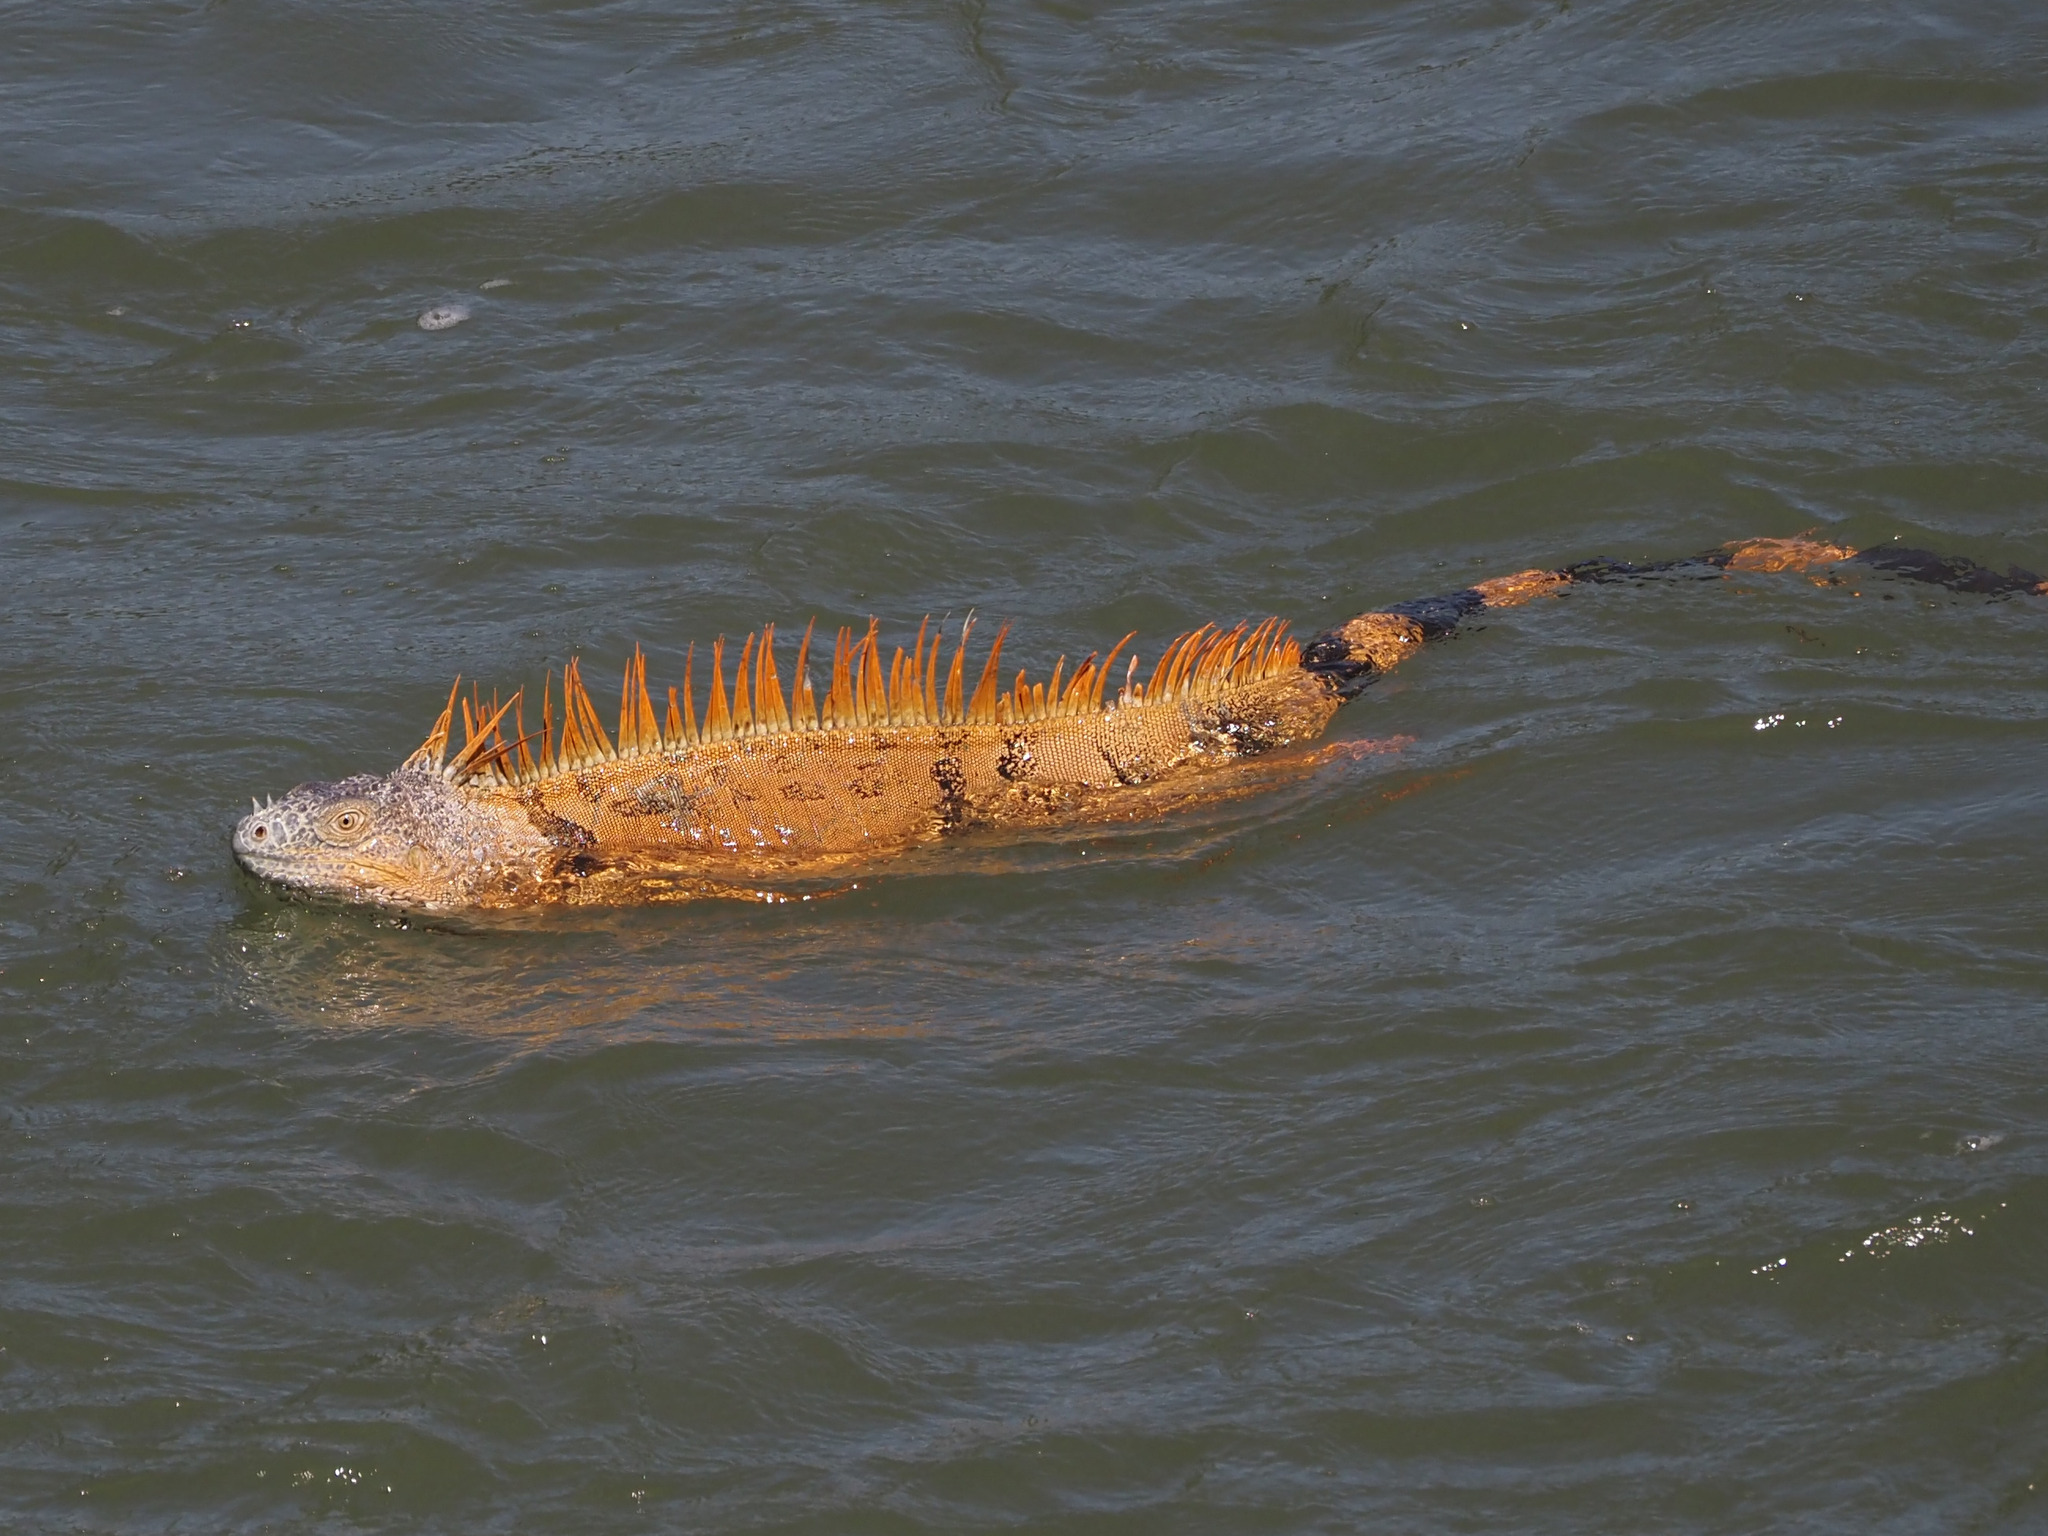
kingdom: Animalia
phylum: Chordata
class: Squamata
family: Iguanidae
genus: Iguana
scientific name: Iguana iguana
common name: Green iguana
